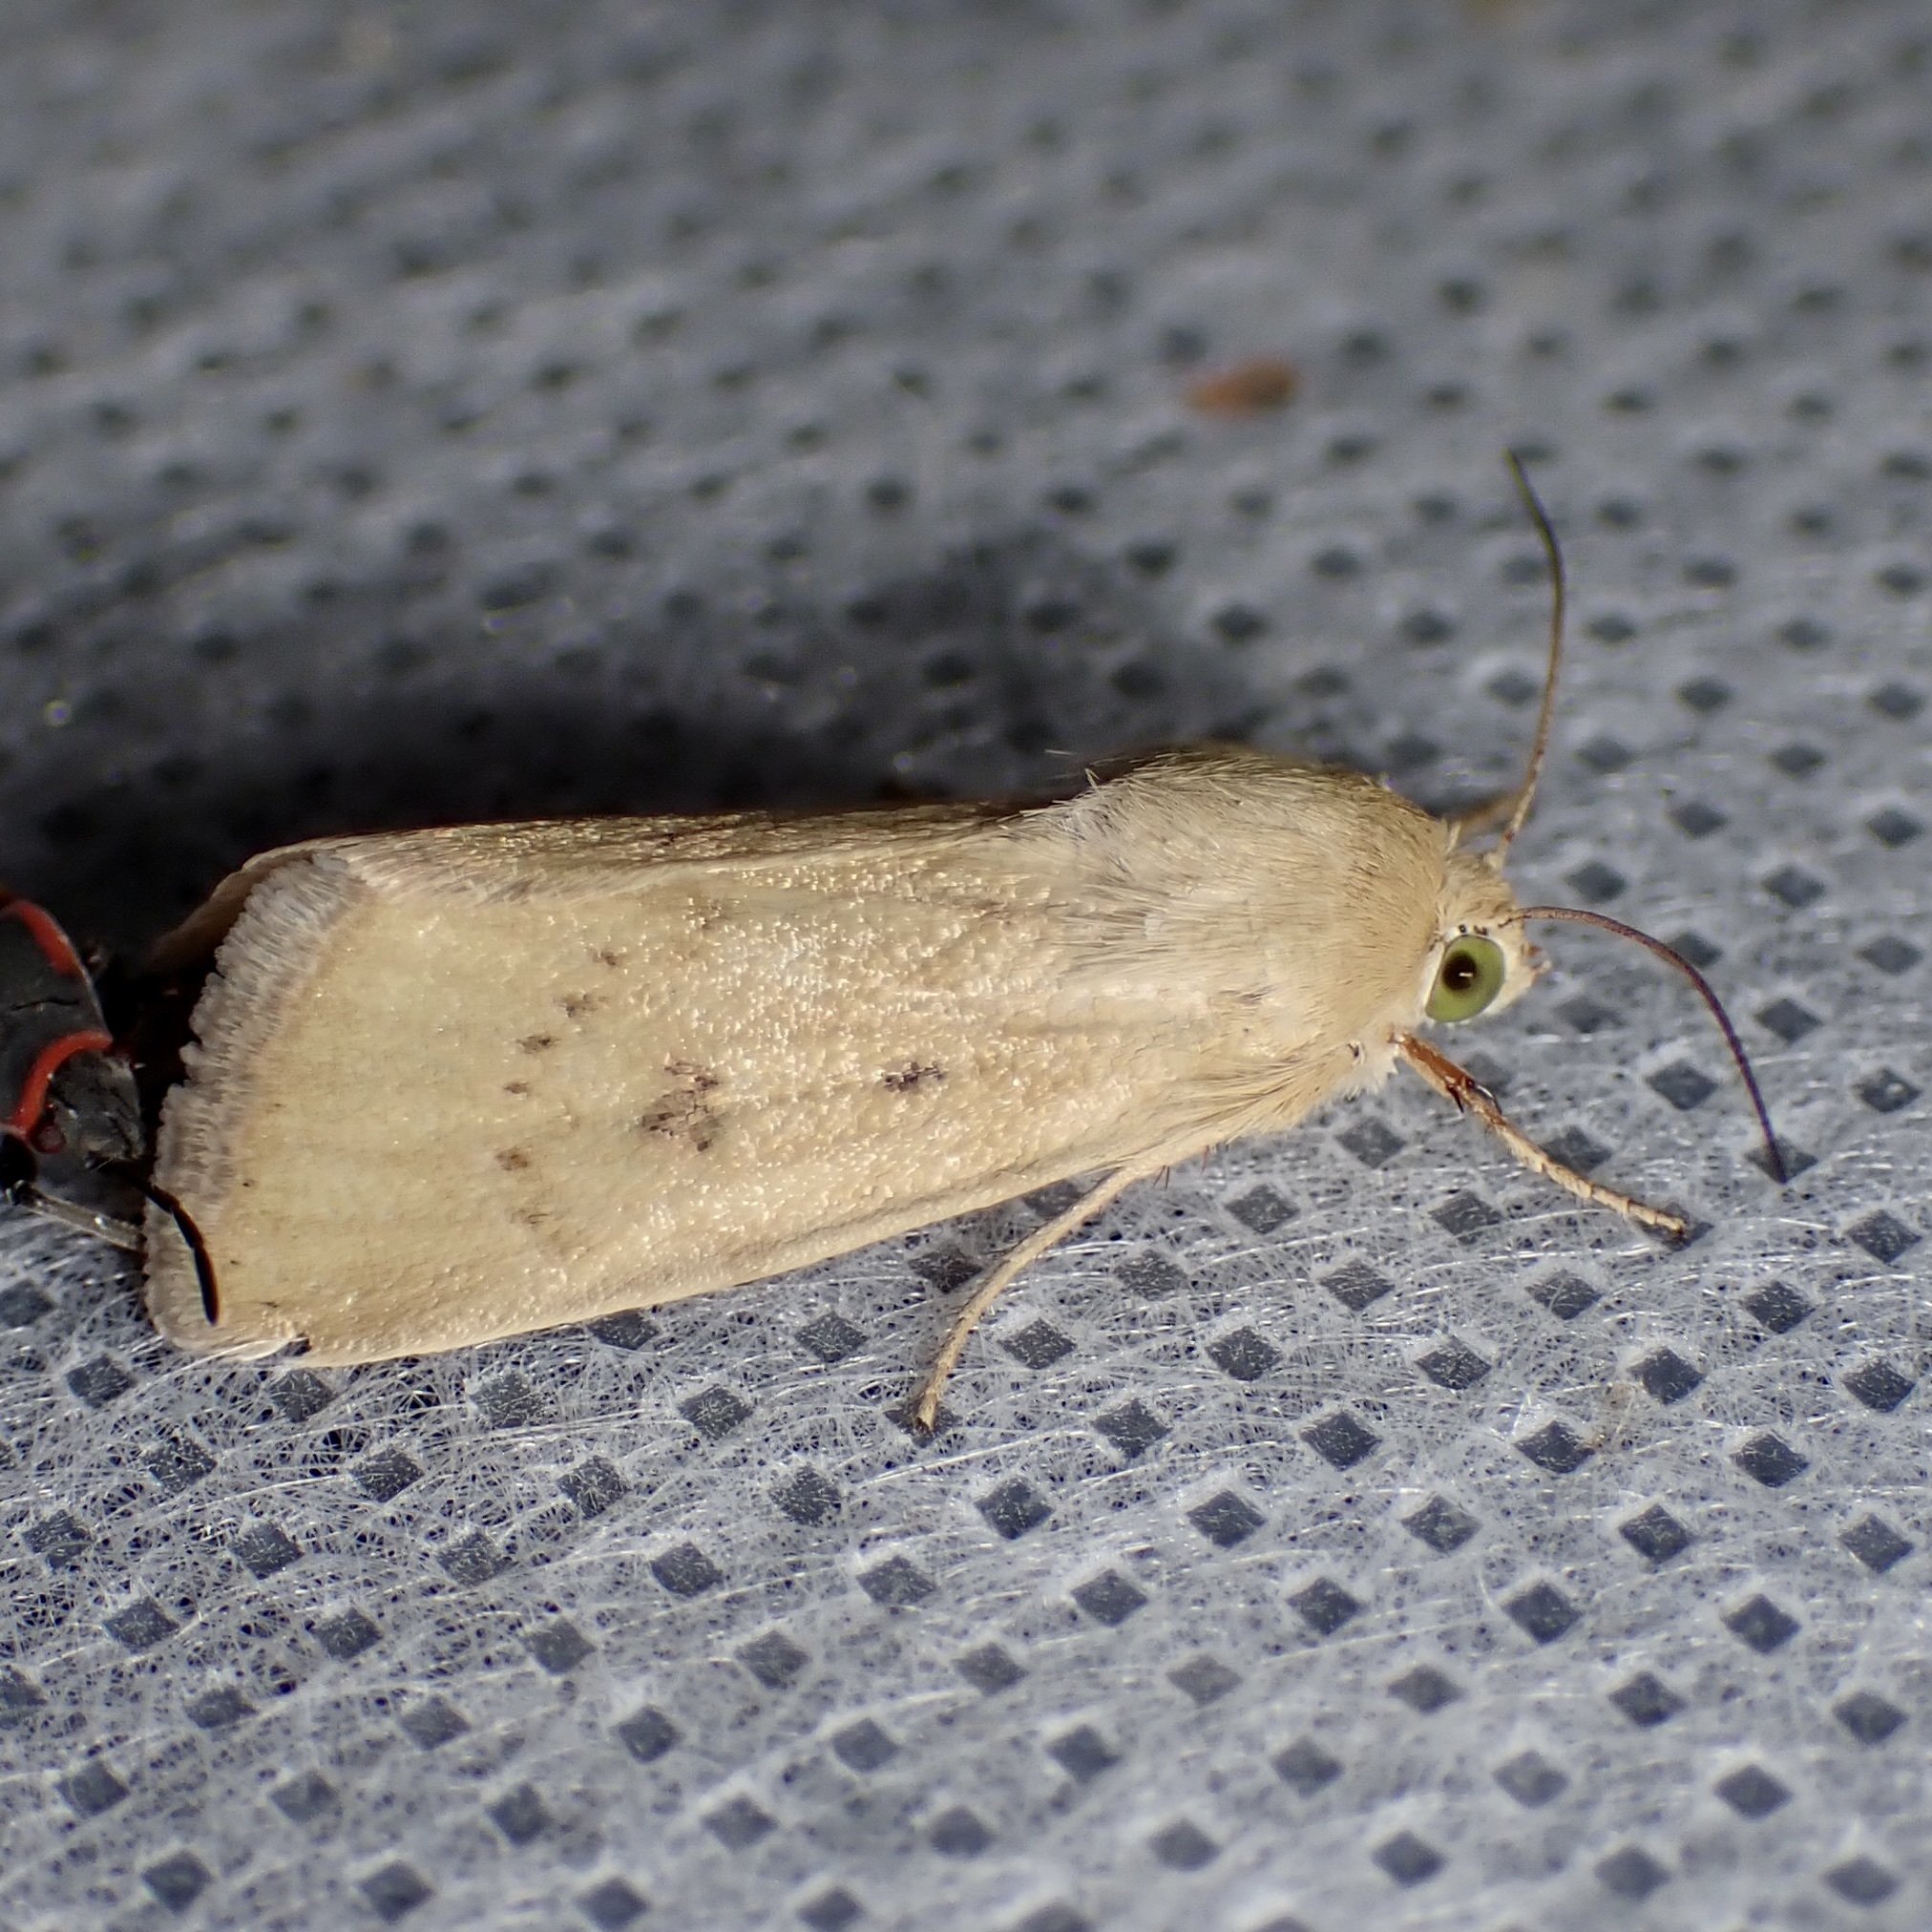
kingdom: Animalia
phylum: Arthropoda
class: Insecta
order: Lepidoptera
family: Noctuidae
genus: Heliocheilus
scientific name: Heliocheilus paradoxus
